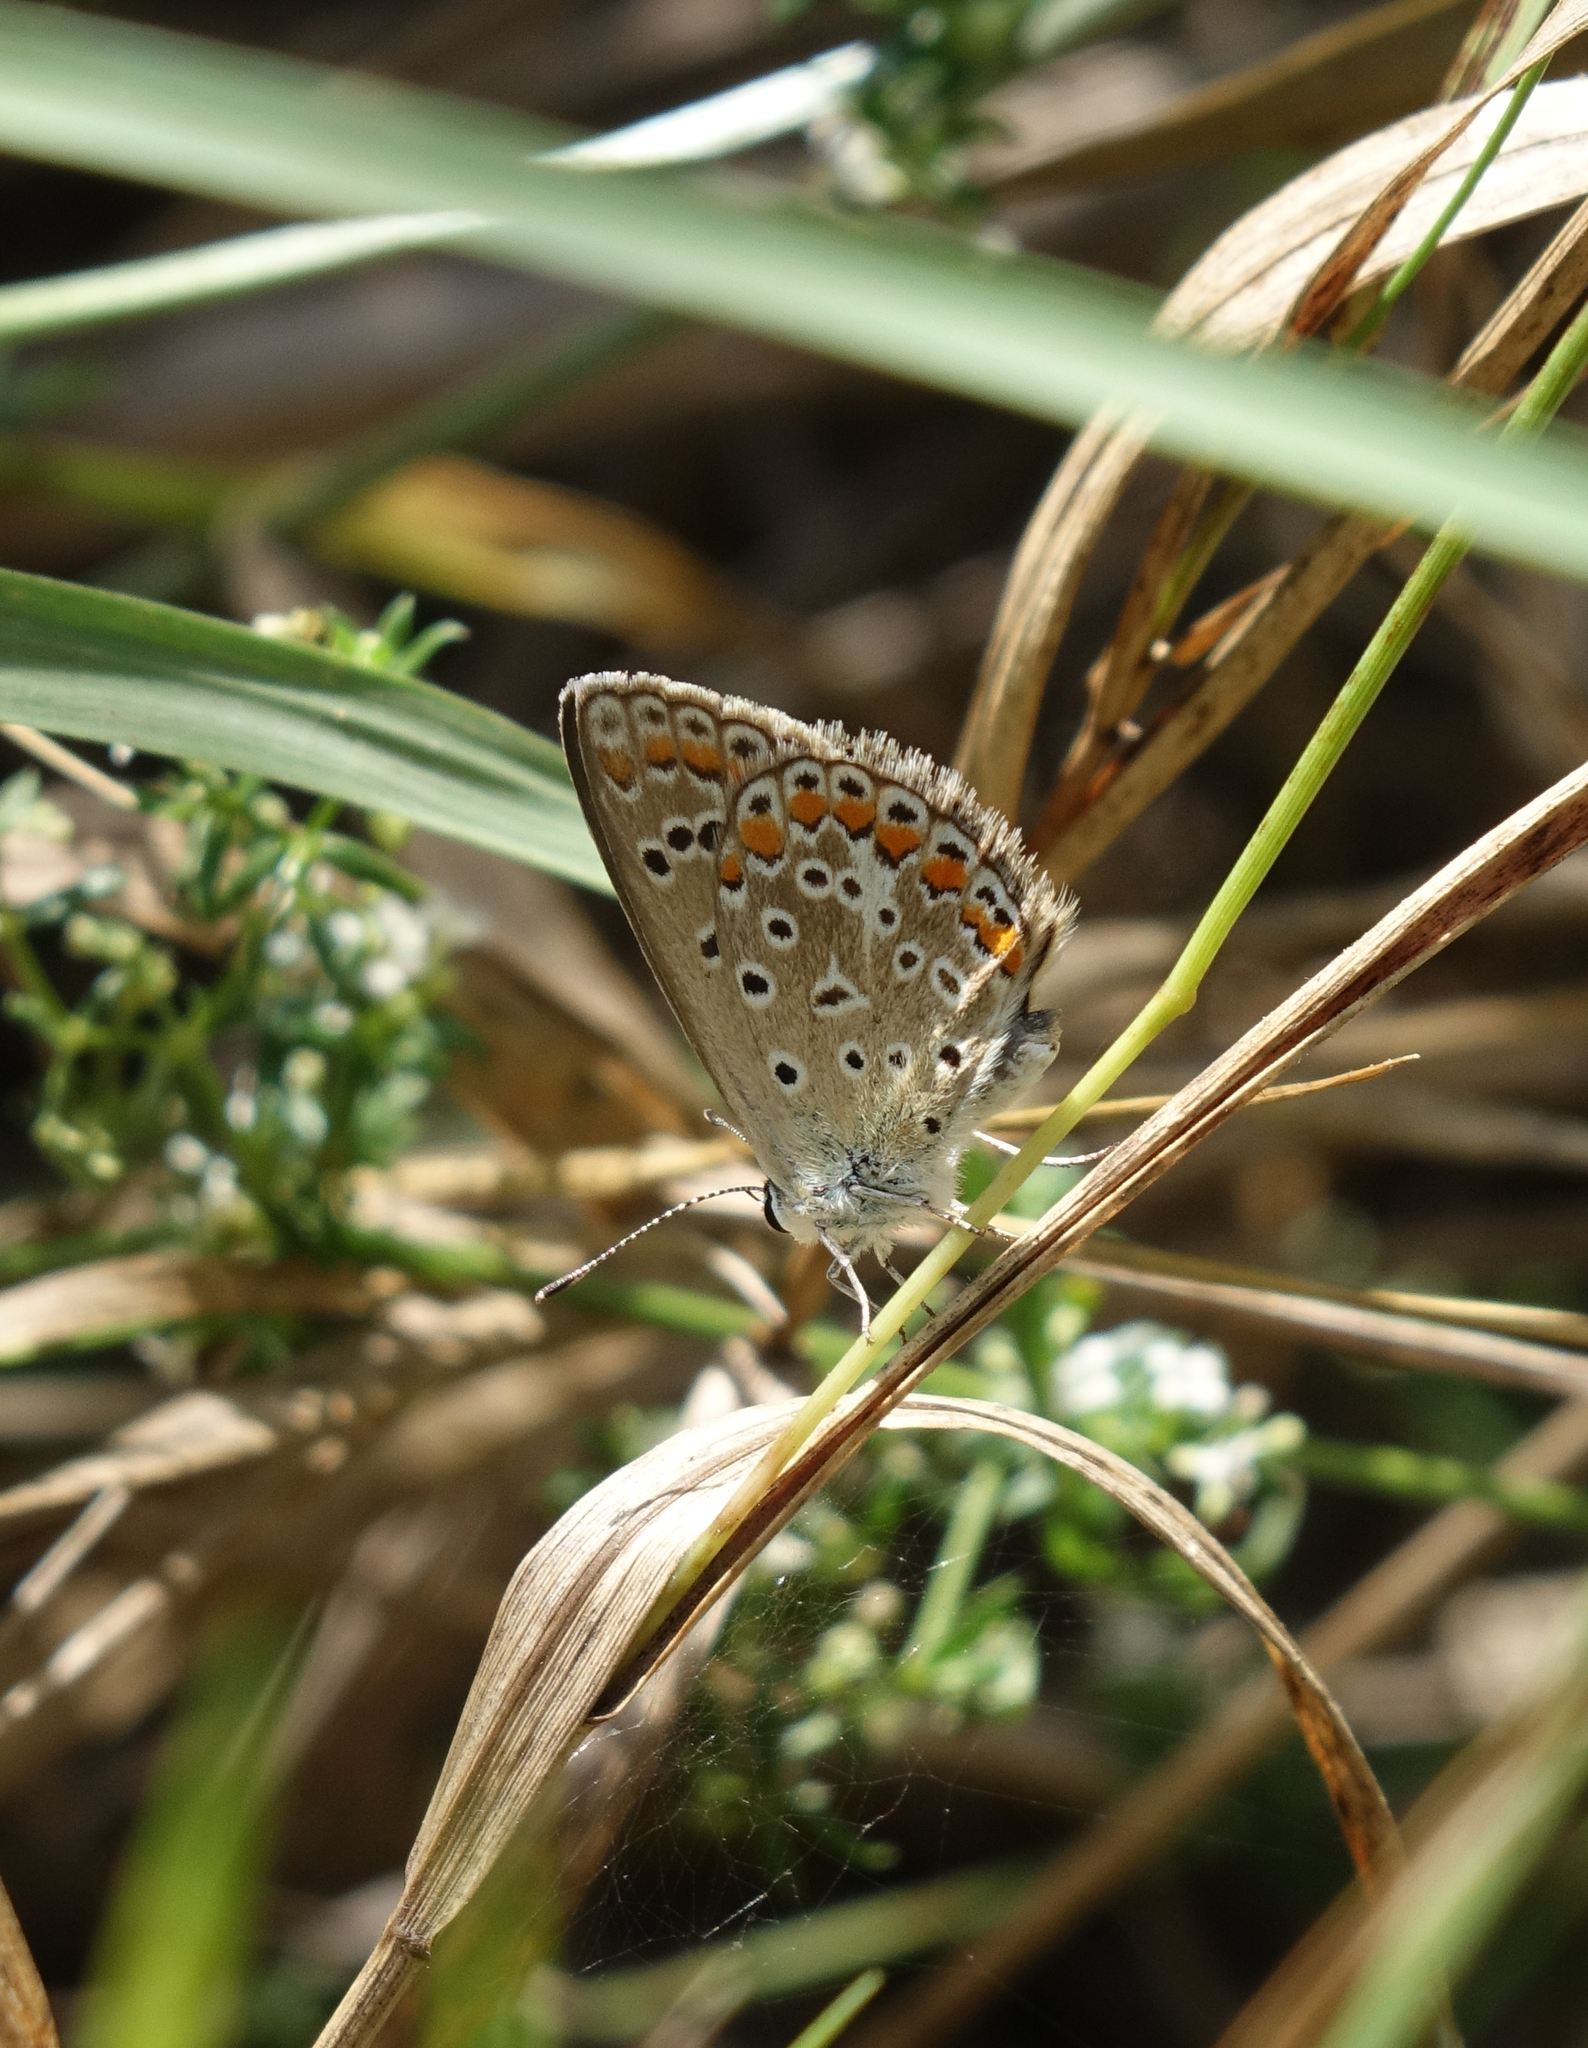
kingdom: Animalia
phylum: Arthropoda
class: Insecta
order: Lepidoptera
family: Lycaenidae
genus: Polyommatus
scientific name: Polyommatus icarus
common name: Common blue
